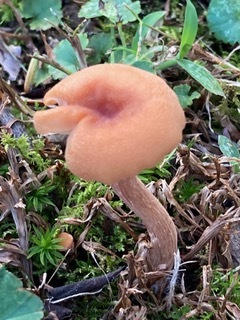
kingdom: Fungi
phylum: Basidiomycota
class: Agaricomycetes
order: Agaricales
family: Hydnangiaceae
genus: Laccaria
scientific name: Laccaria laccata
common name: Deceiver
